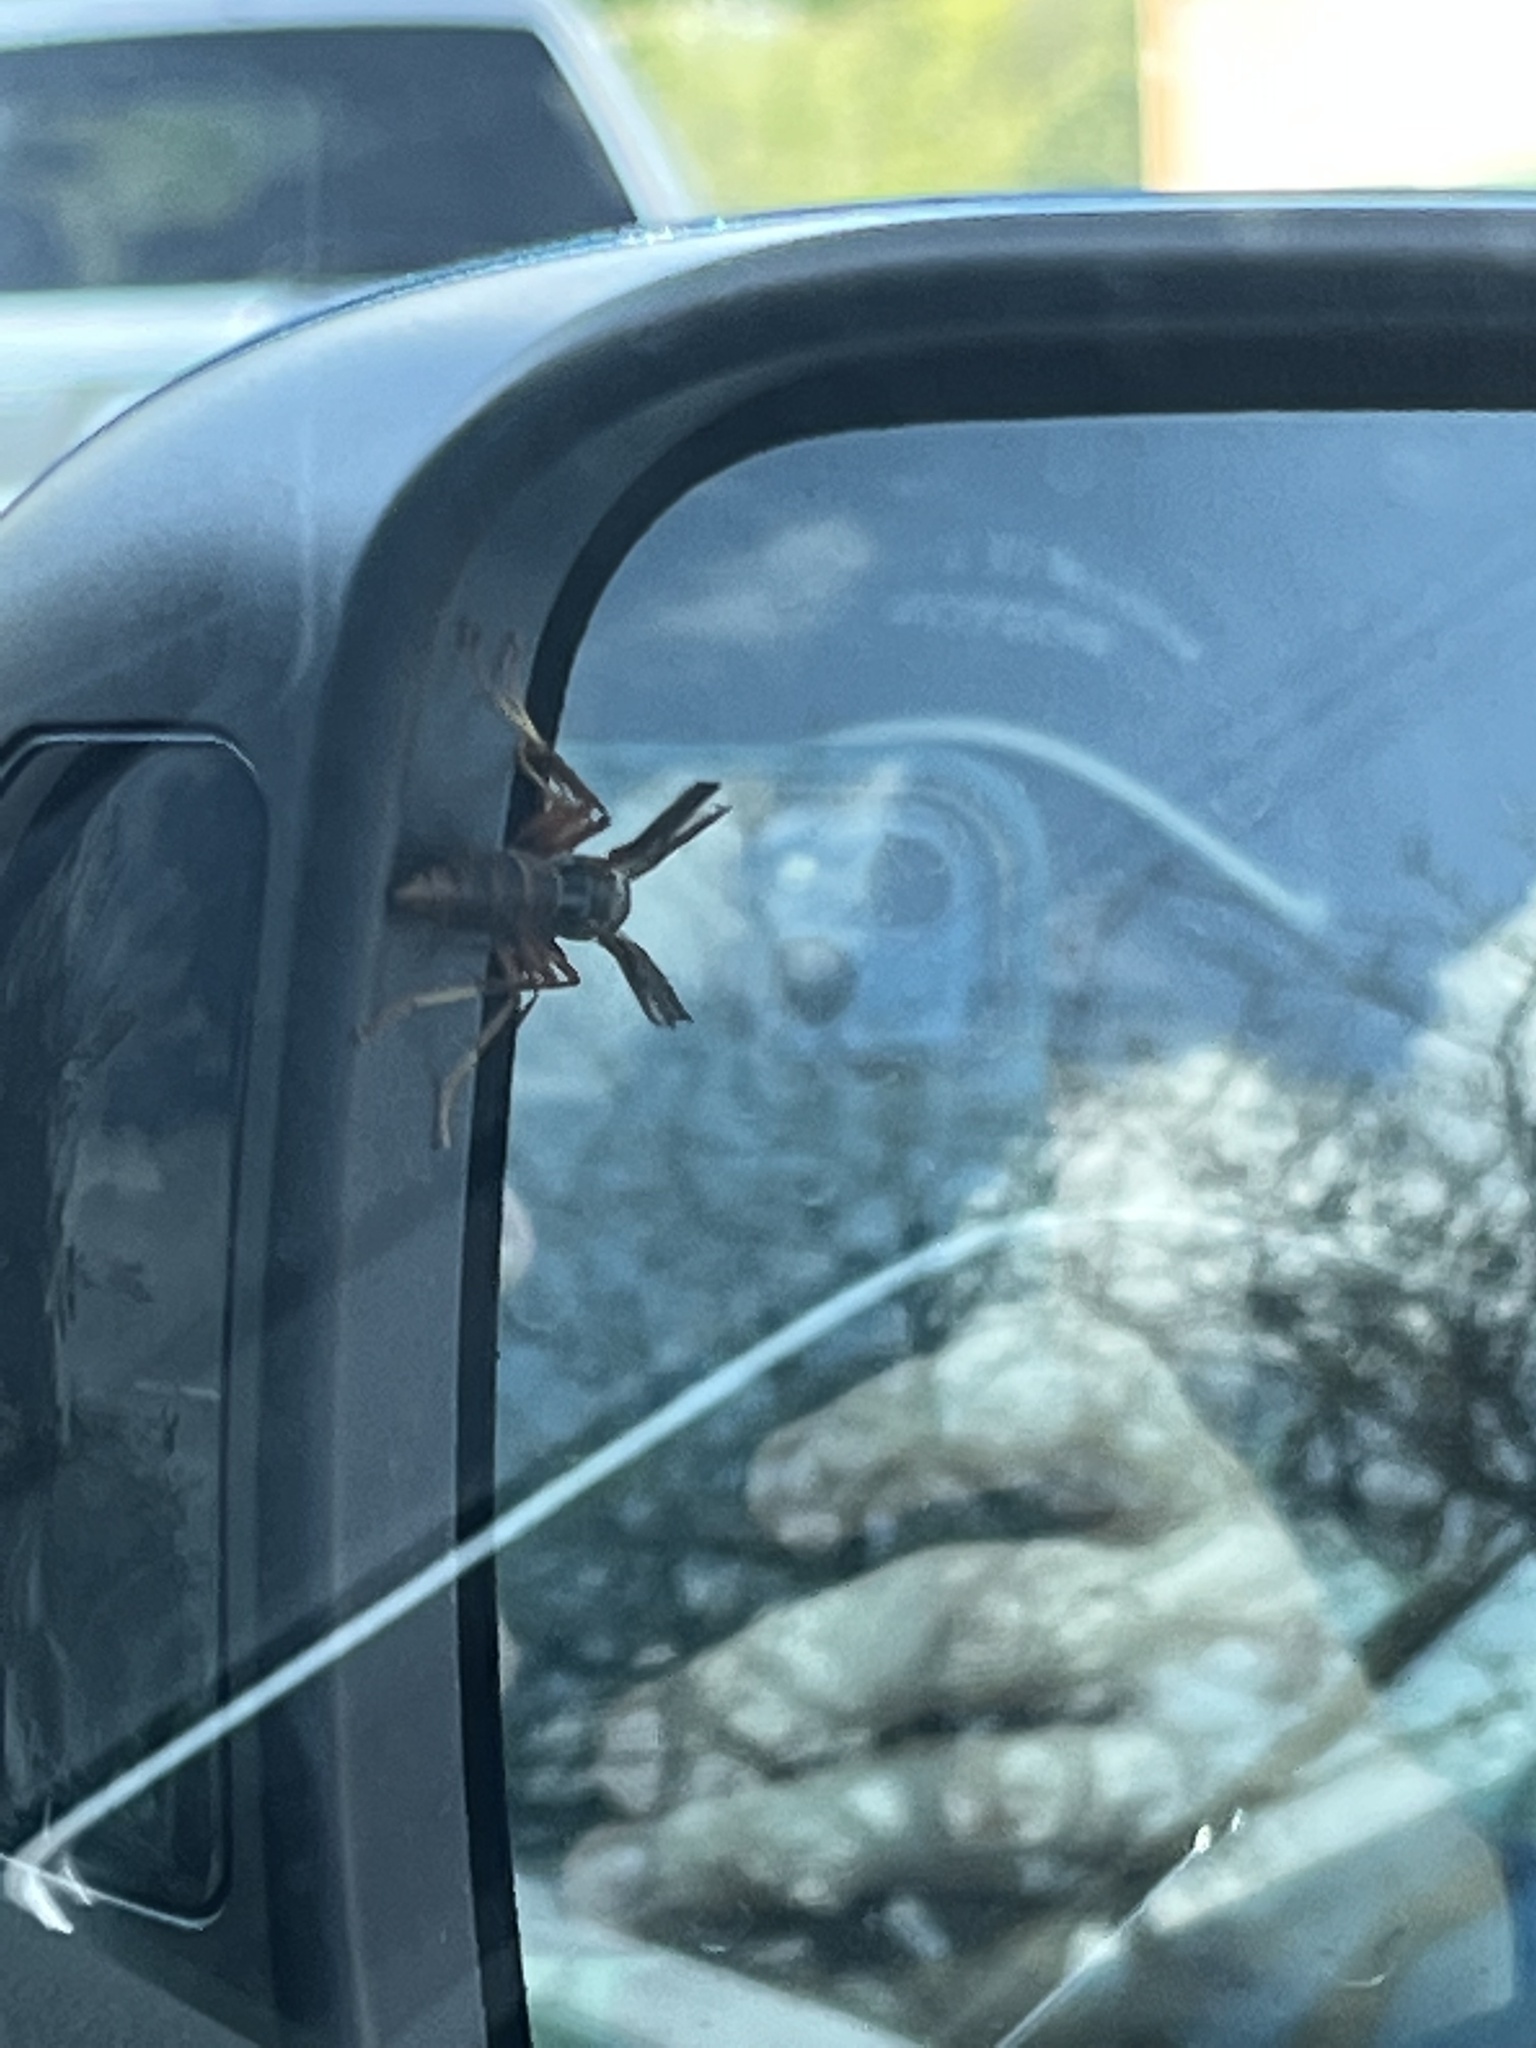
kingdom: Animalia
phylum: Arthropoda
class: Insecta
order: Hymenoptera
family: Eumenidae
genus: Polistes
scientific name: Polistes fuscatus
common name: Dark paper wasp
